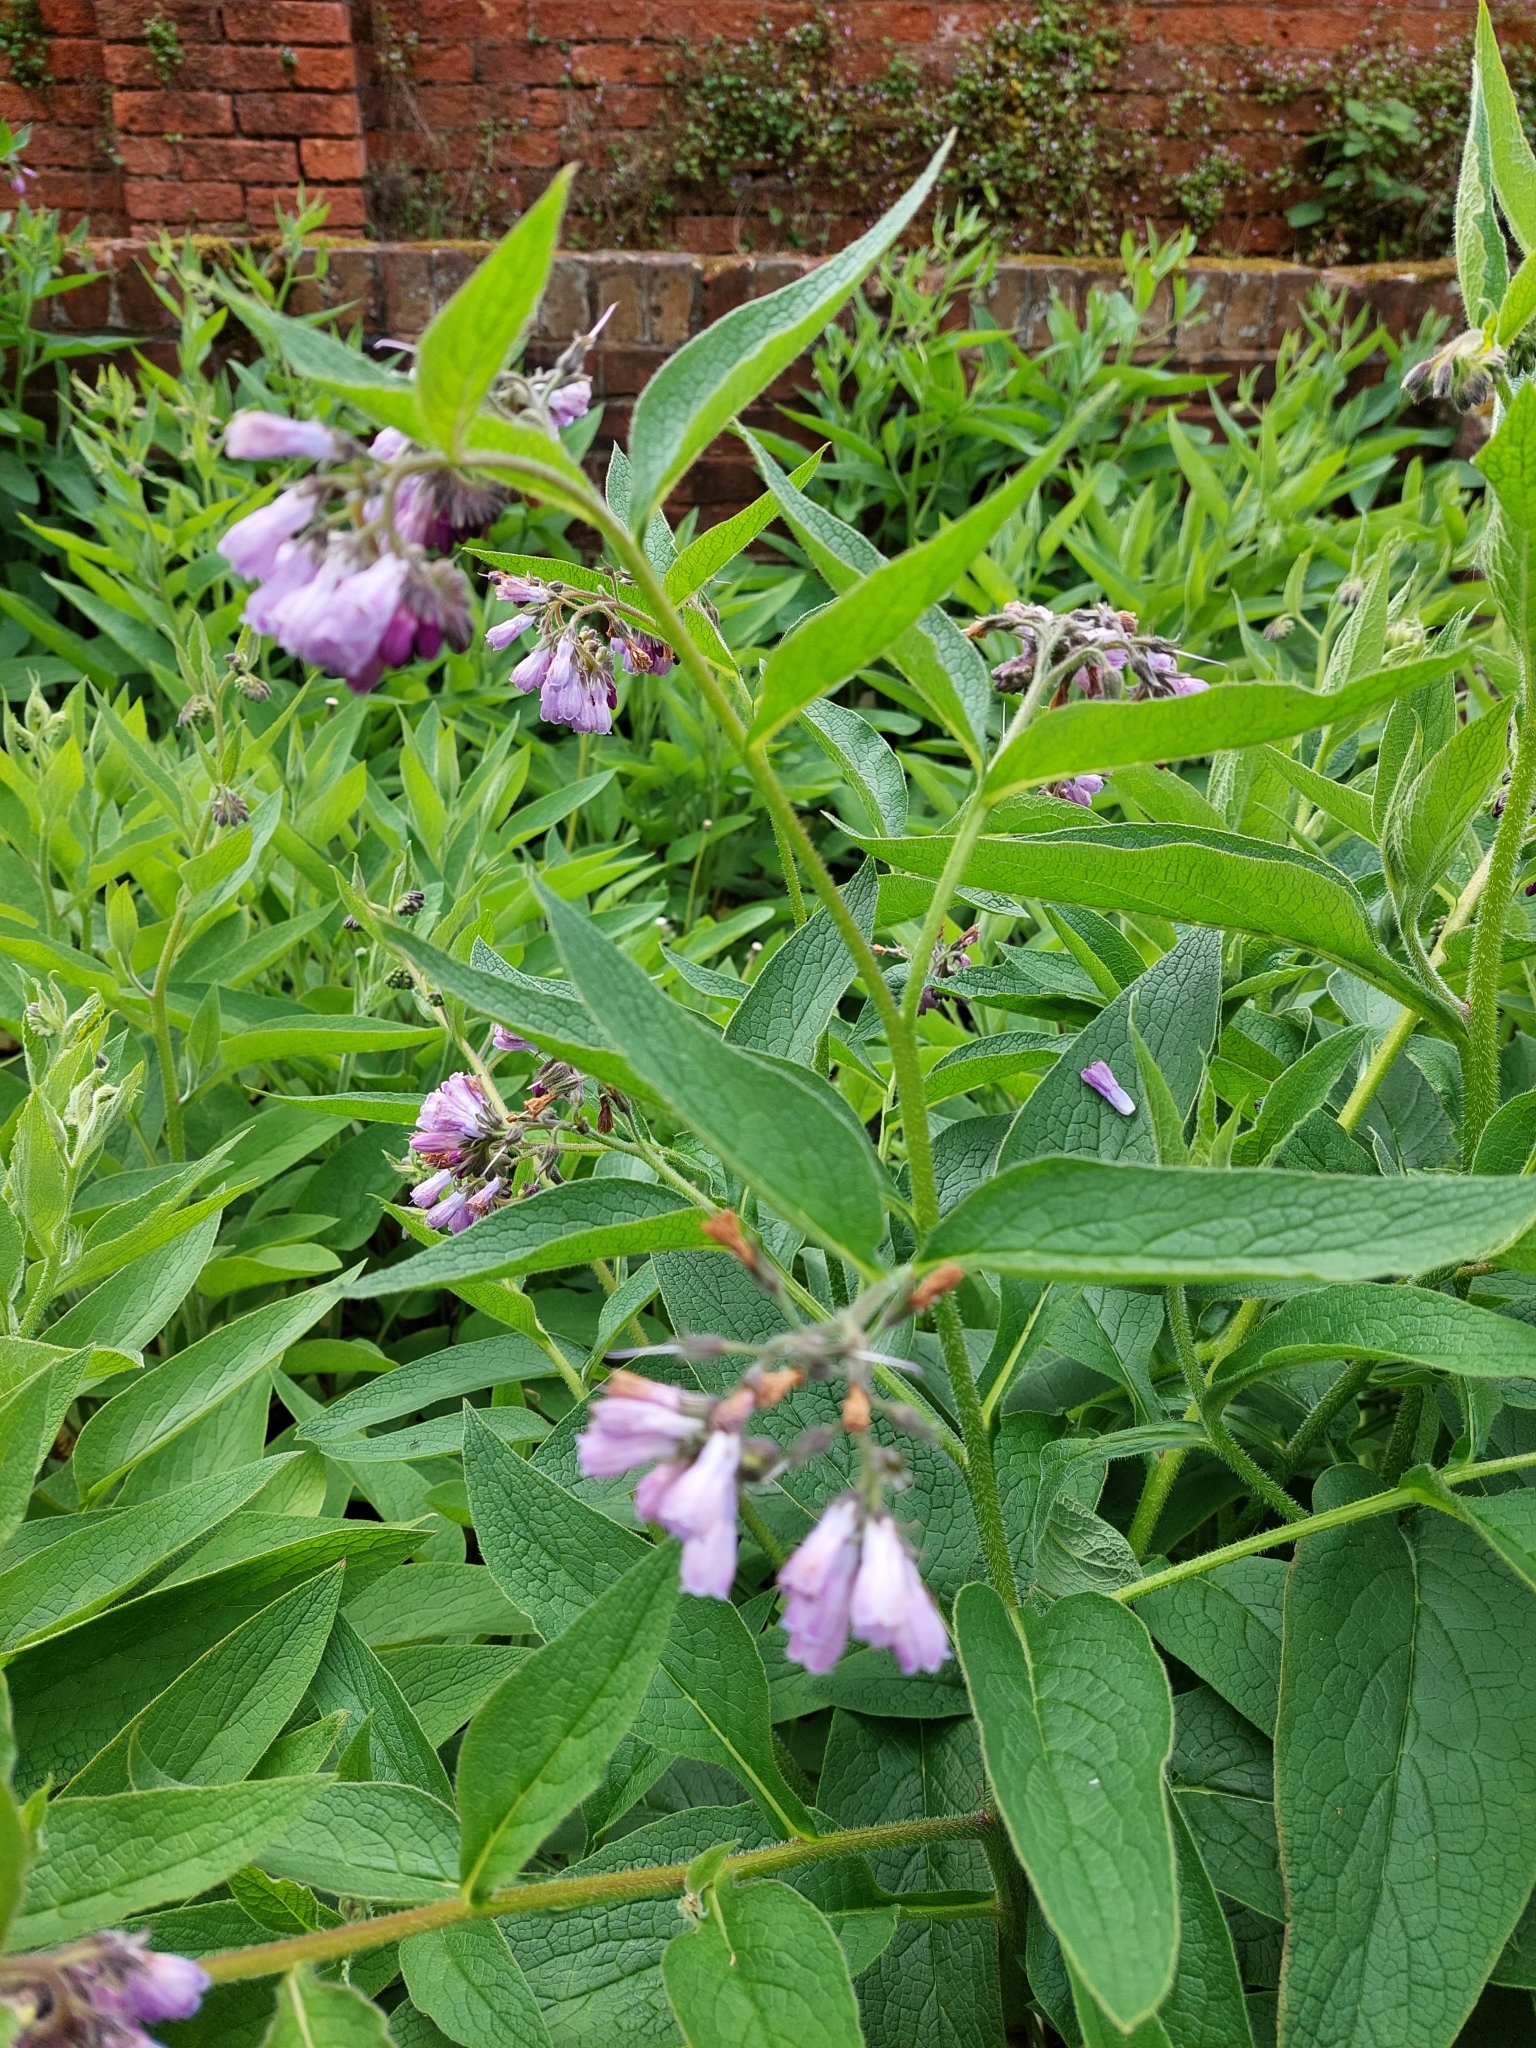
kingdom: Plantae
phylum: Tracheophyta
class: Magnoliopsida
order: Boraginales
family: Boraginaceae
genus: Symphytum
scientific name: Symphytum uplandicum
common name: Russian comfrey
